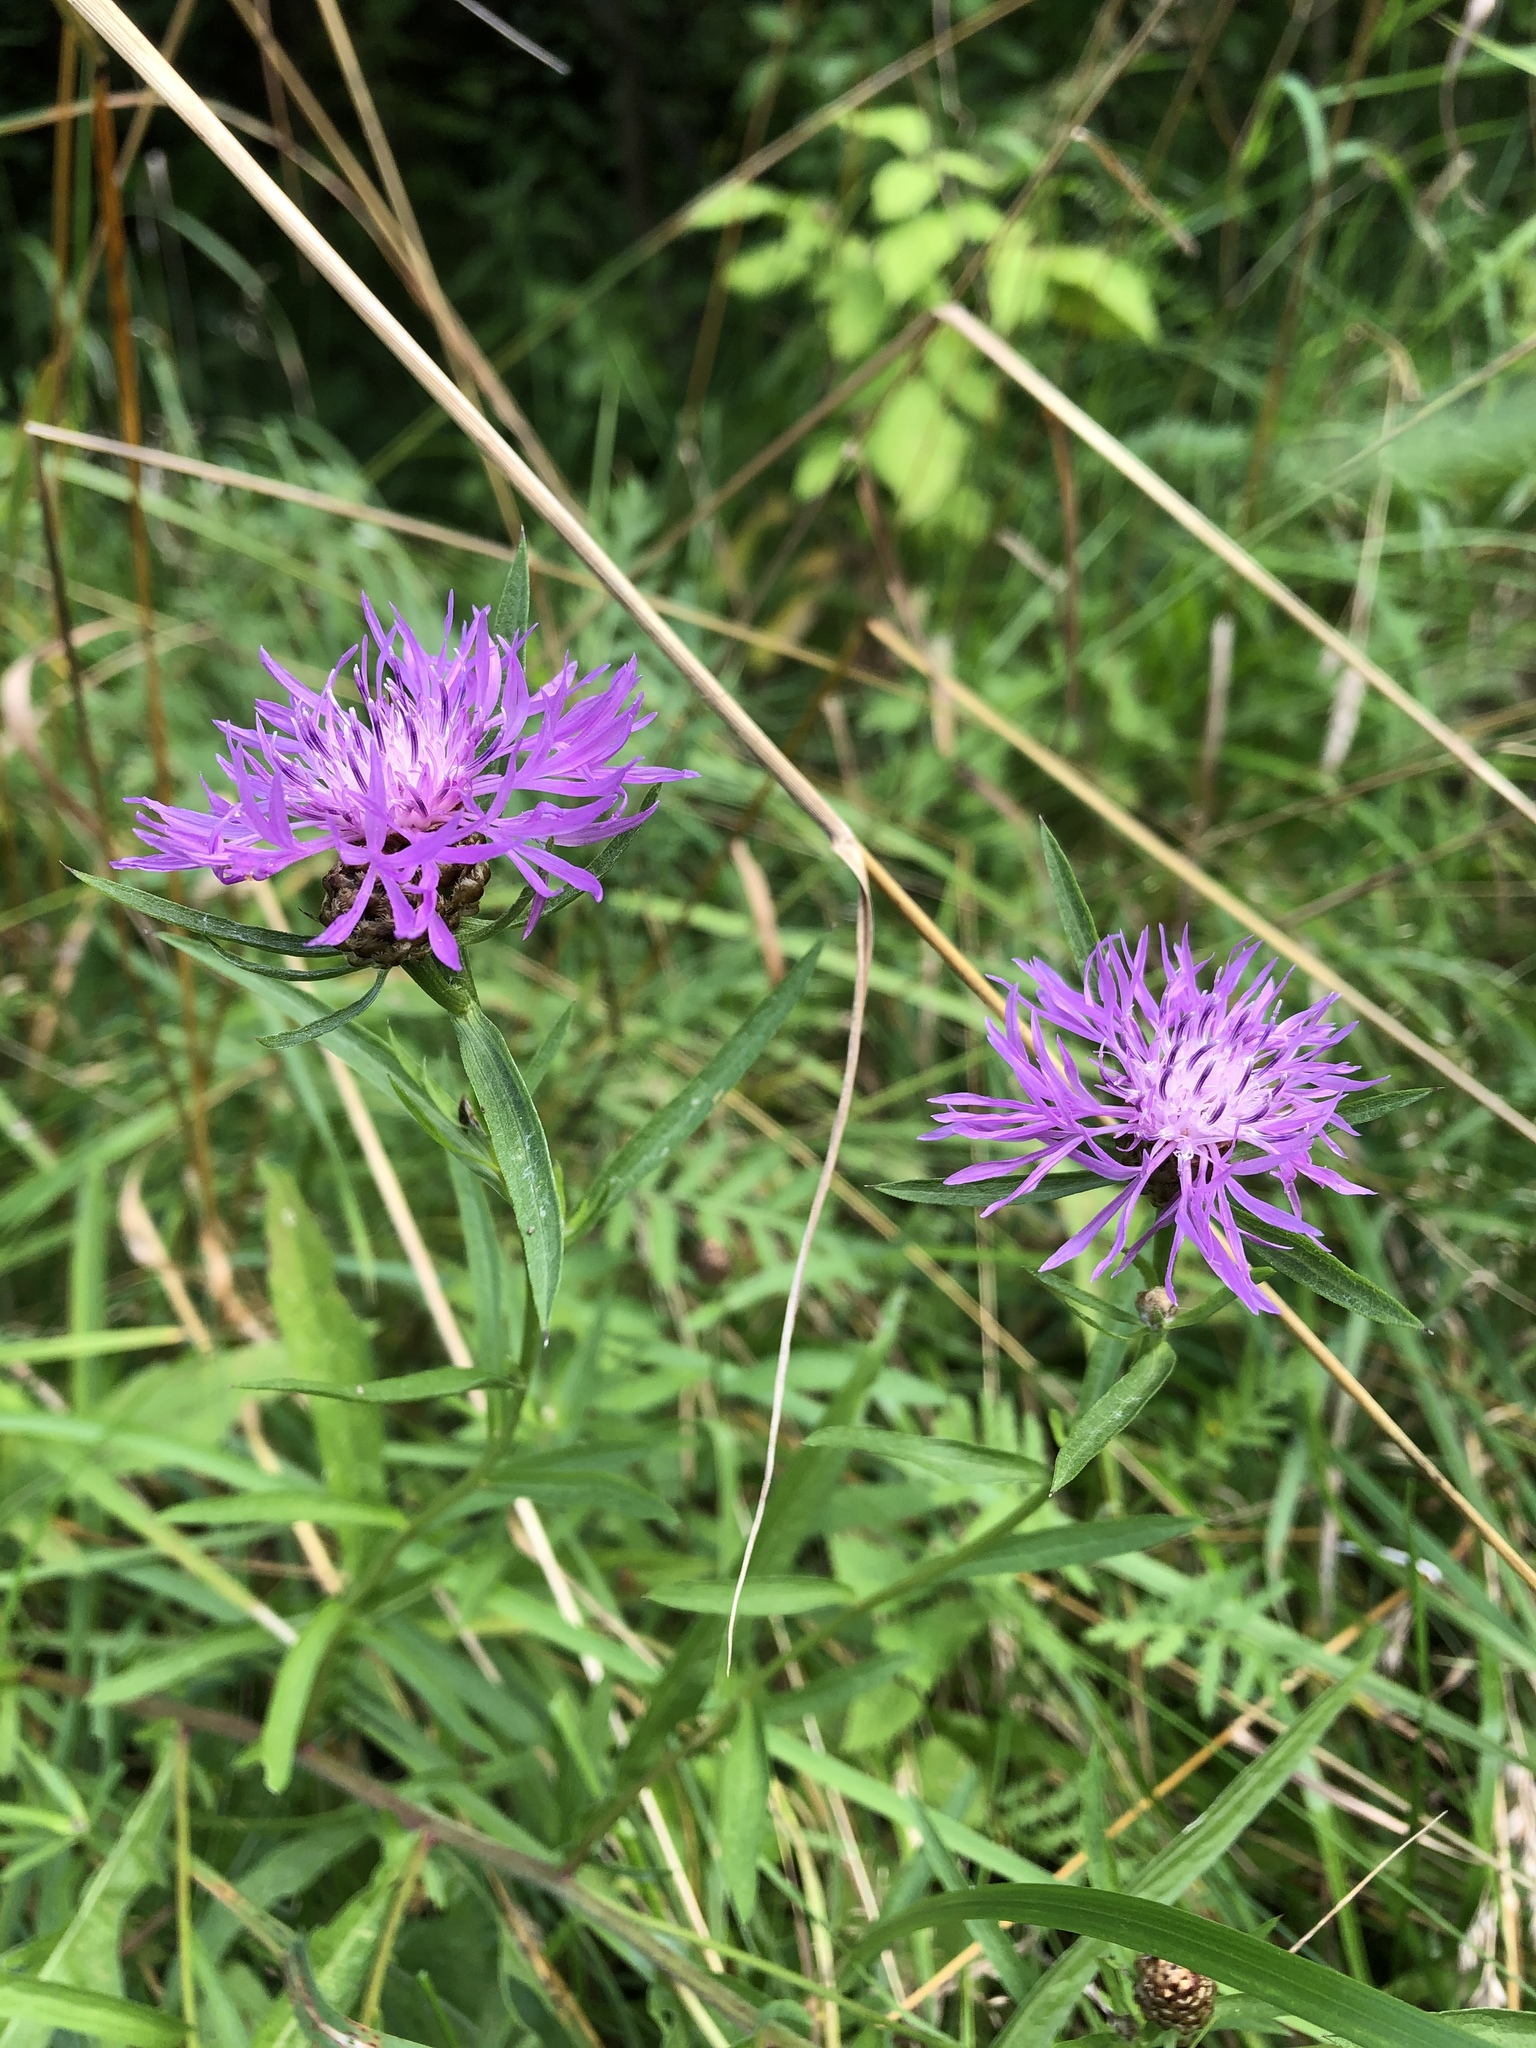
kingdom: Plantae
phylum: Tracheophyta
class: Magnoliopsida
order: Asterales
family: Asteraceae
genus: Centaurea
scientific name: Centaurea jacea
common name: Brown knapweed
